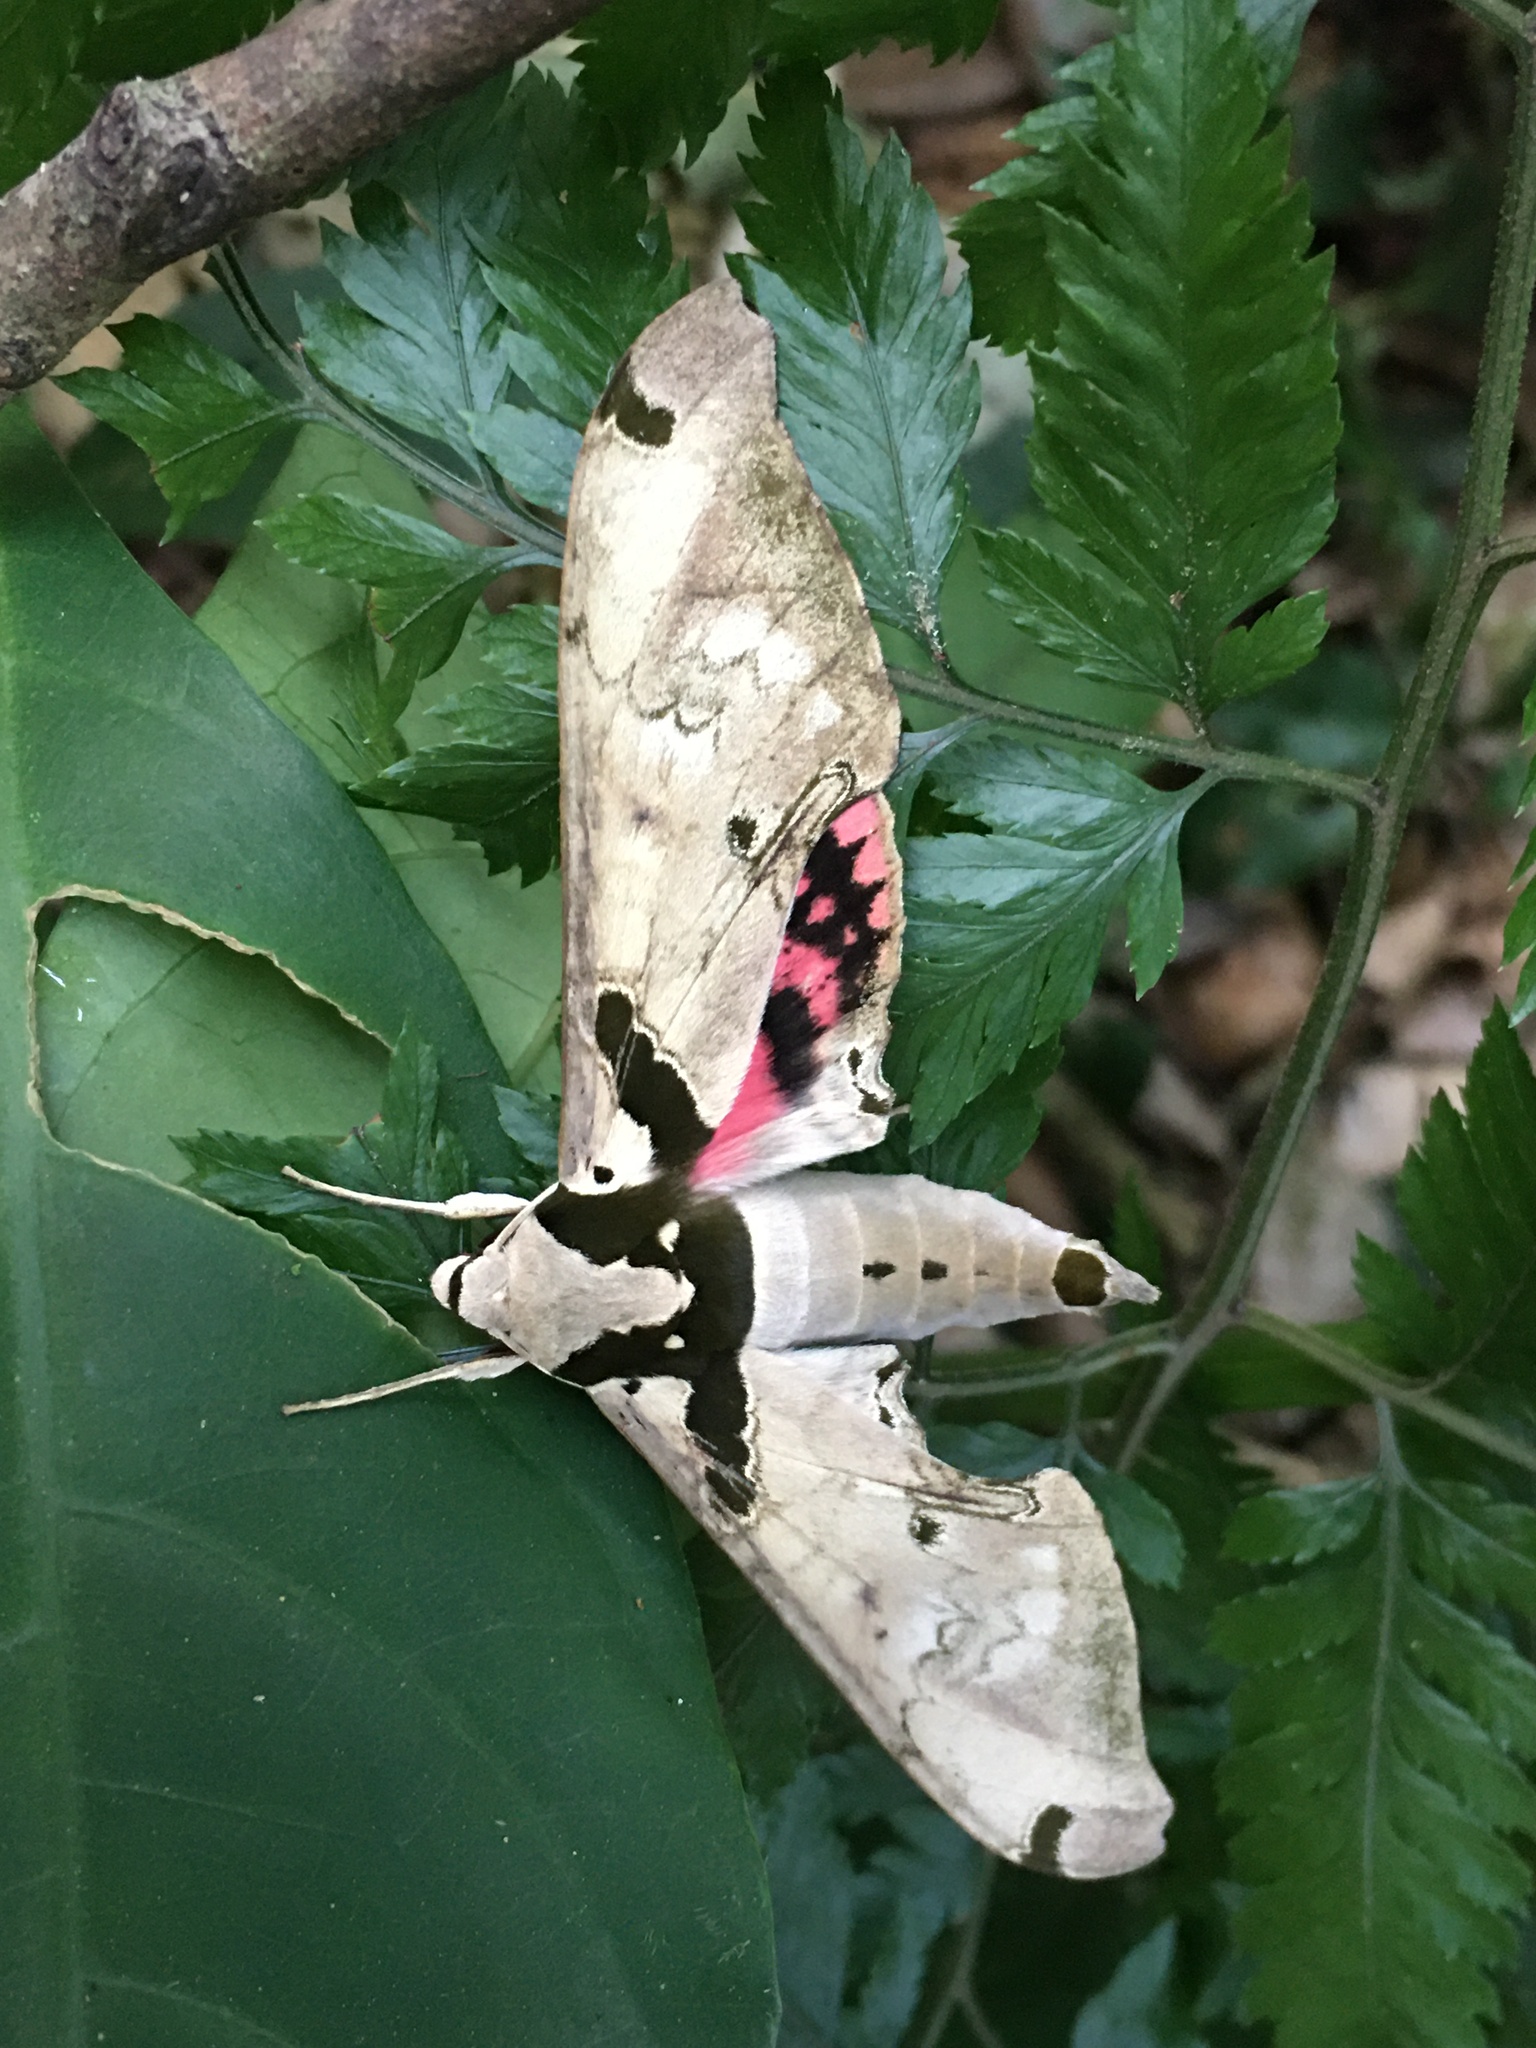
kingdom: Animalia
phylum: Arthropoda
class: Insecta
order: Lepidoptera
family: Sphingidae
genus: Adhemarius
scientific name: Adhemarius gannascus
